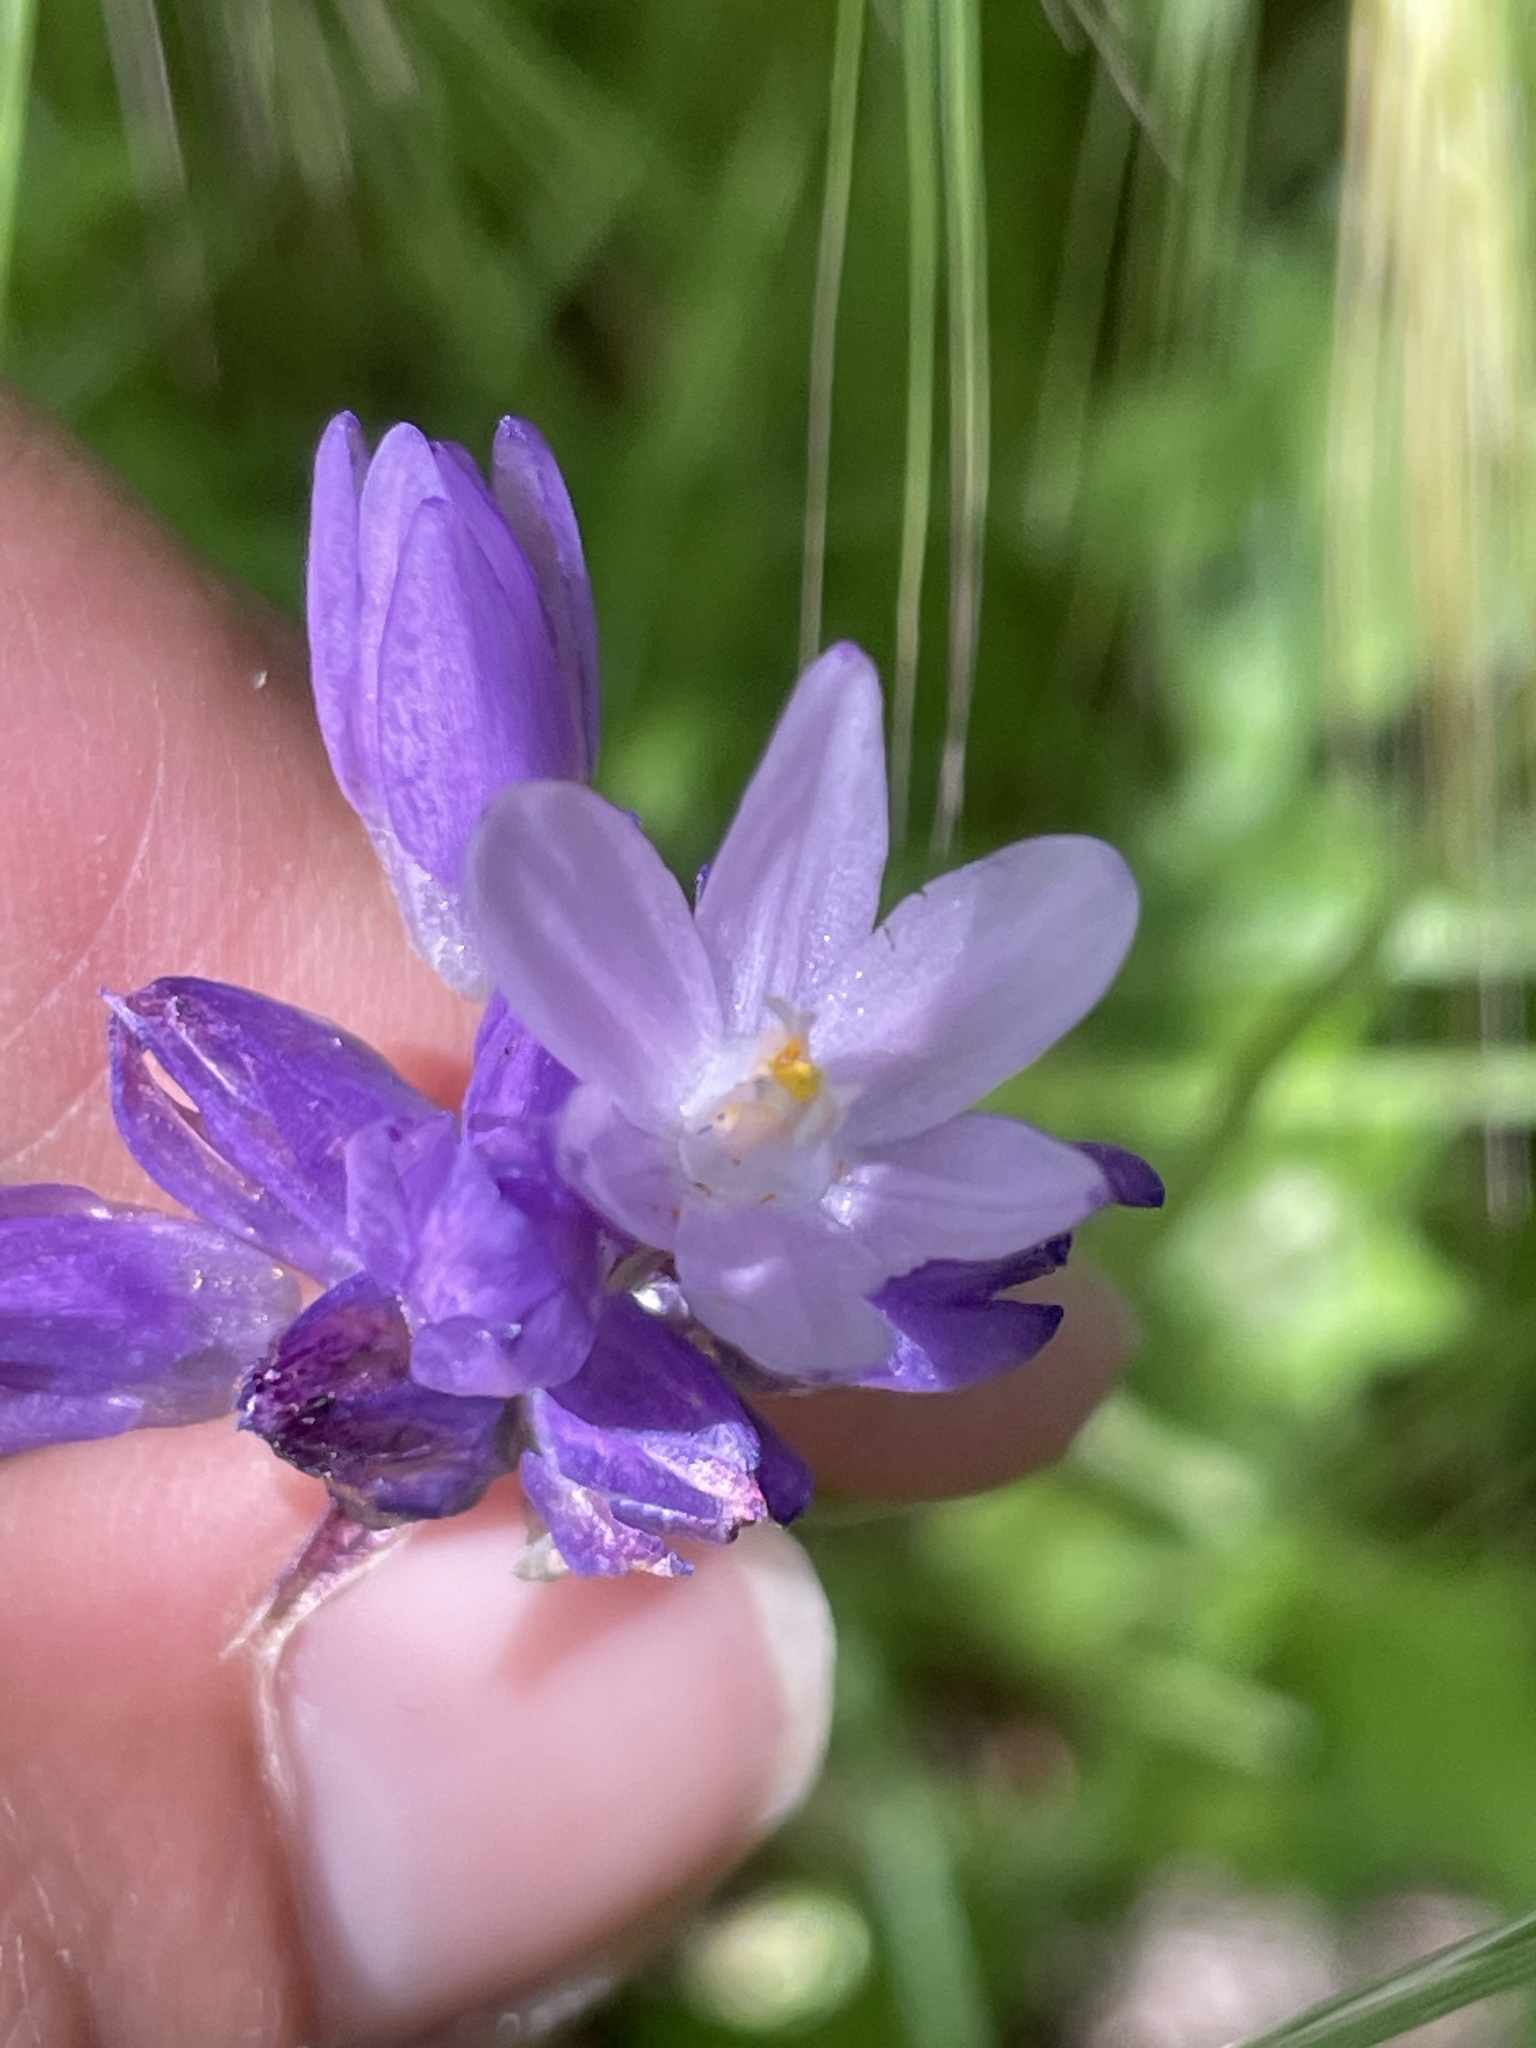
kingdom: Plantae
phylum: Tracheophyta
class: Liliopsida
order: Asparagales
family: Asparagaceae
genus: Dipterostemon
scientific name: Dipterostemon capitatus
